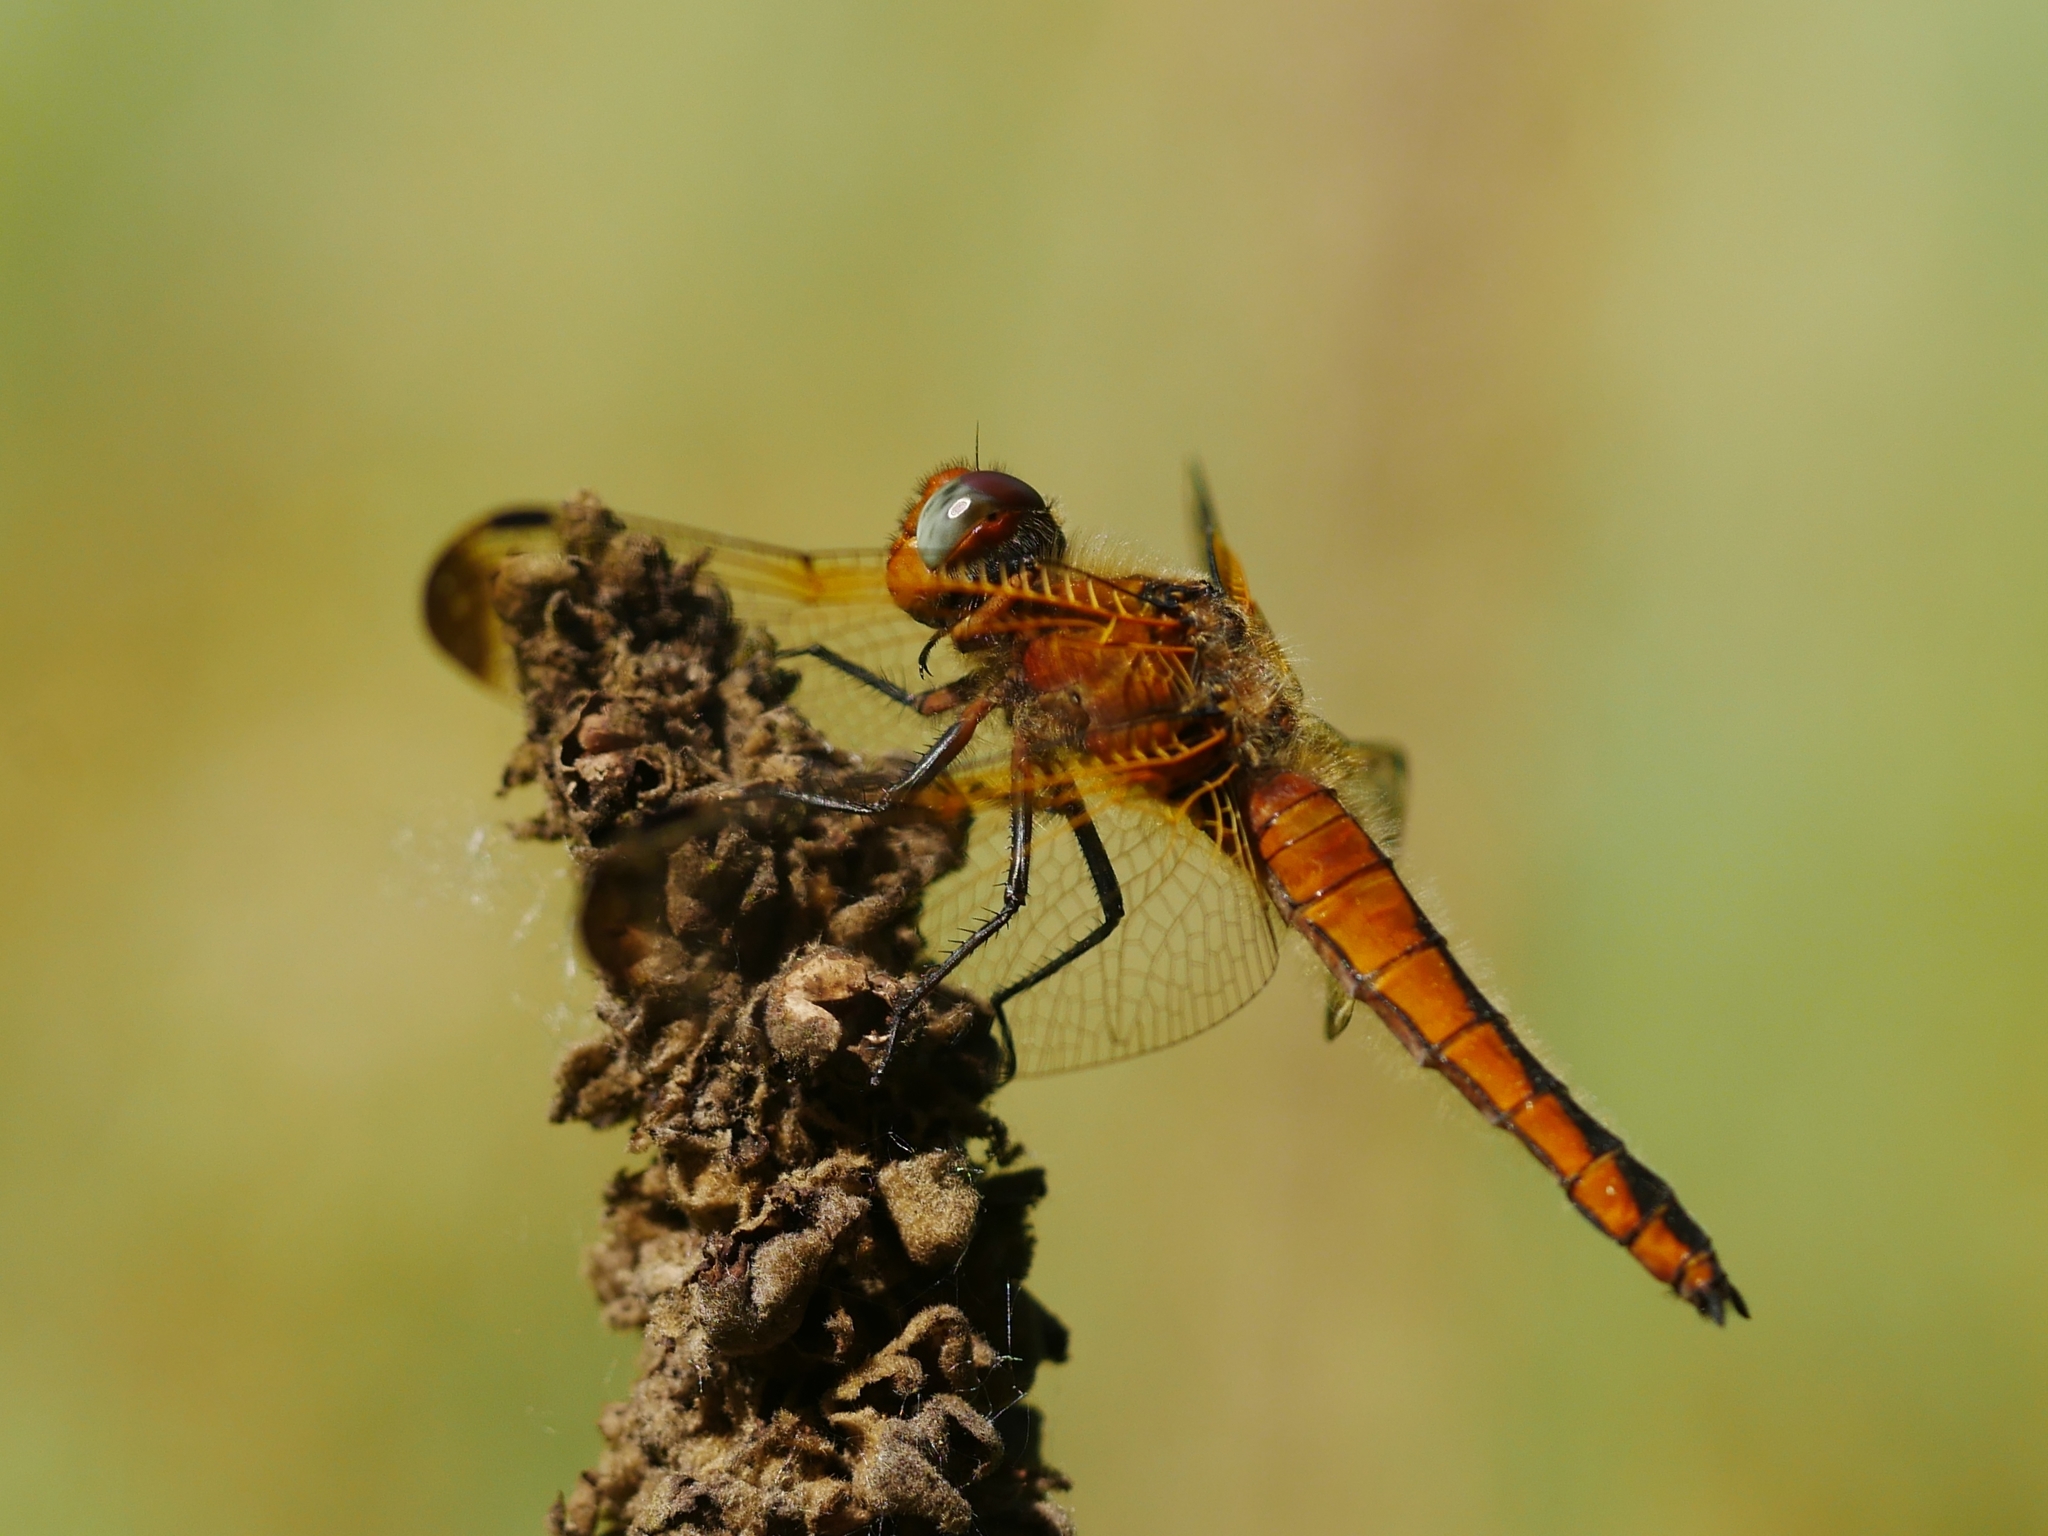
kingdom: Animalia
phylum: Arthropoda
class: Insecta
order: Odonata
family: Libellulidae
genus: Libellula
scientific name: Libellula fulva
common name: Blue chaser
